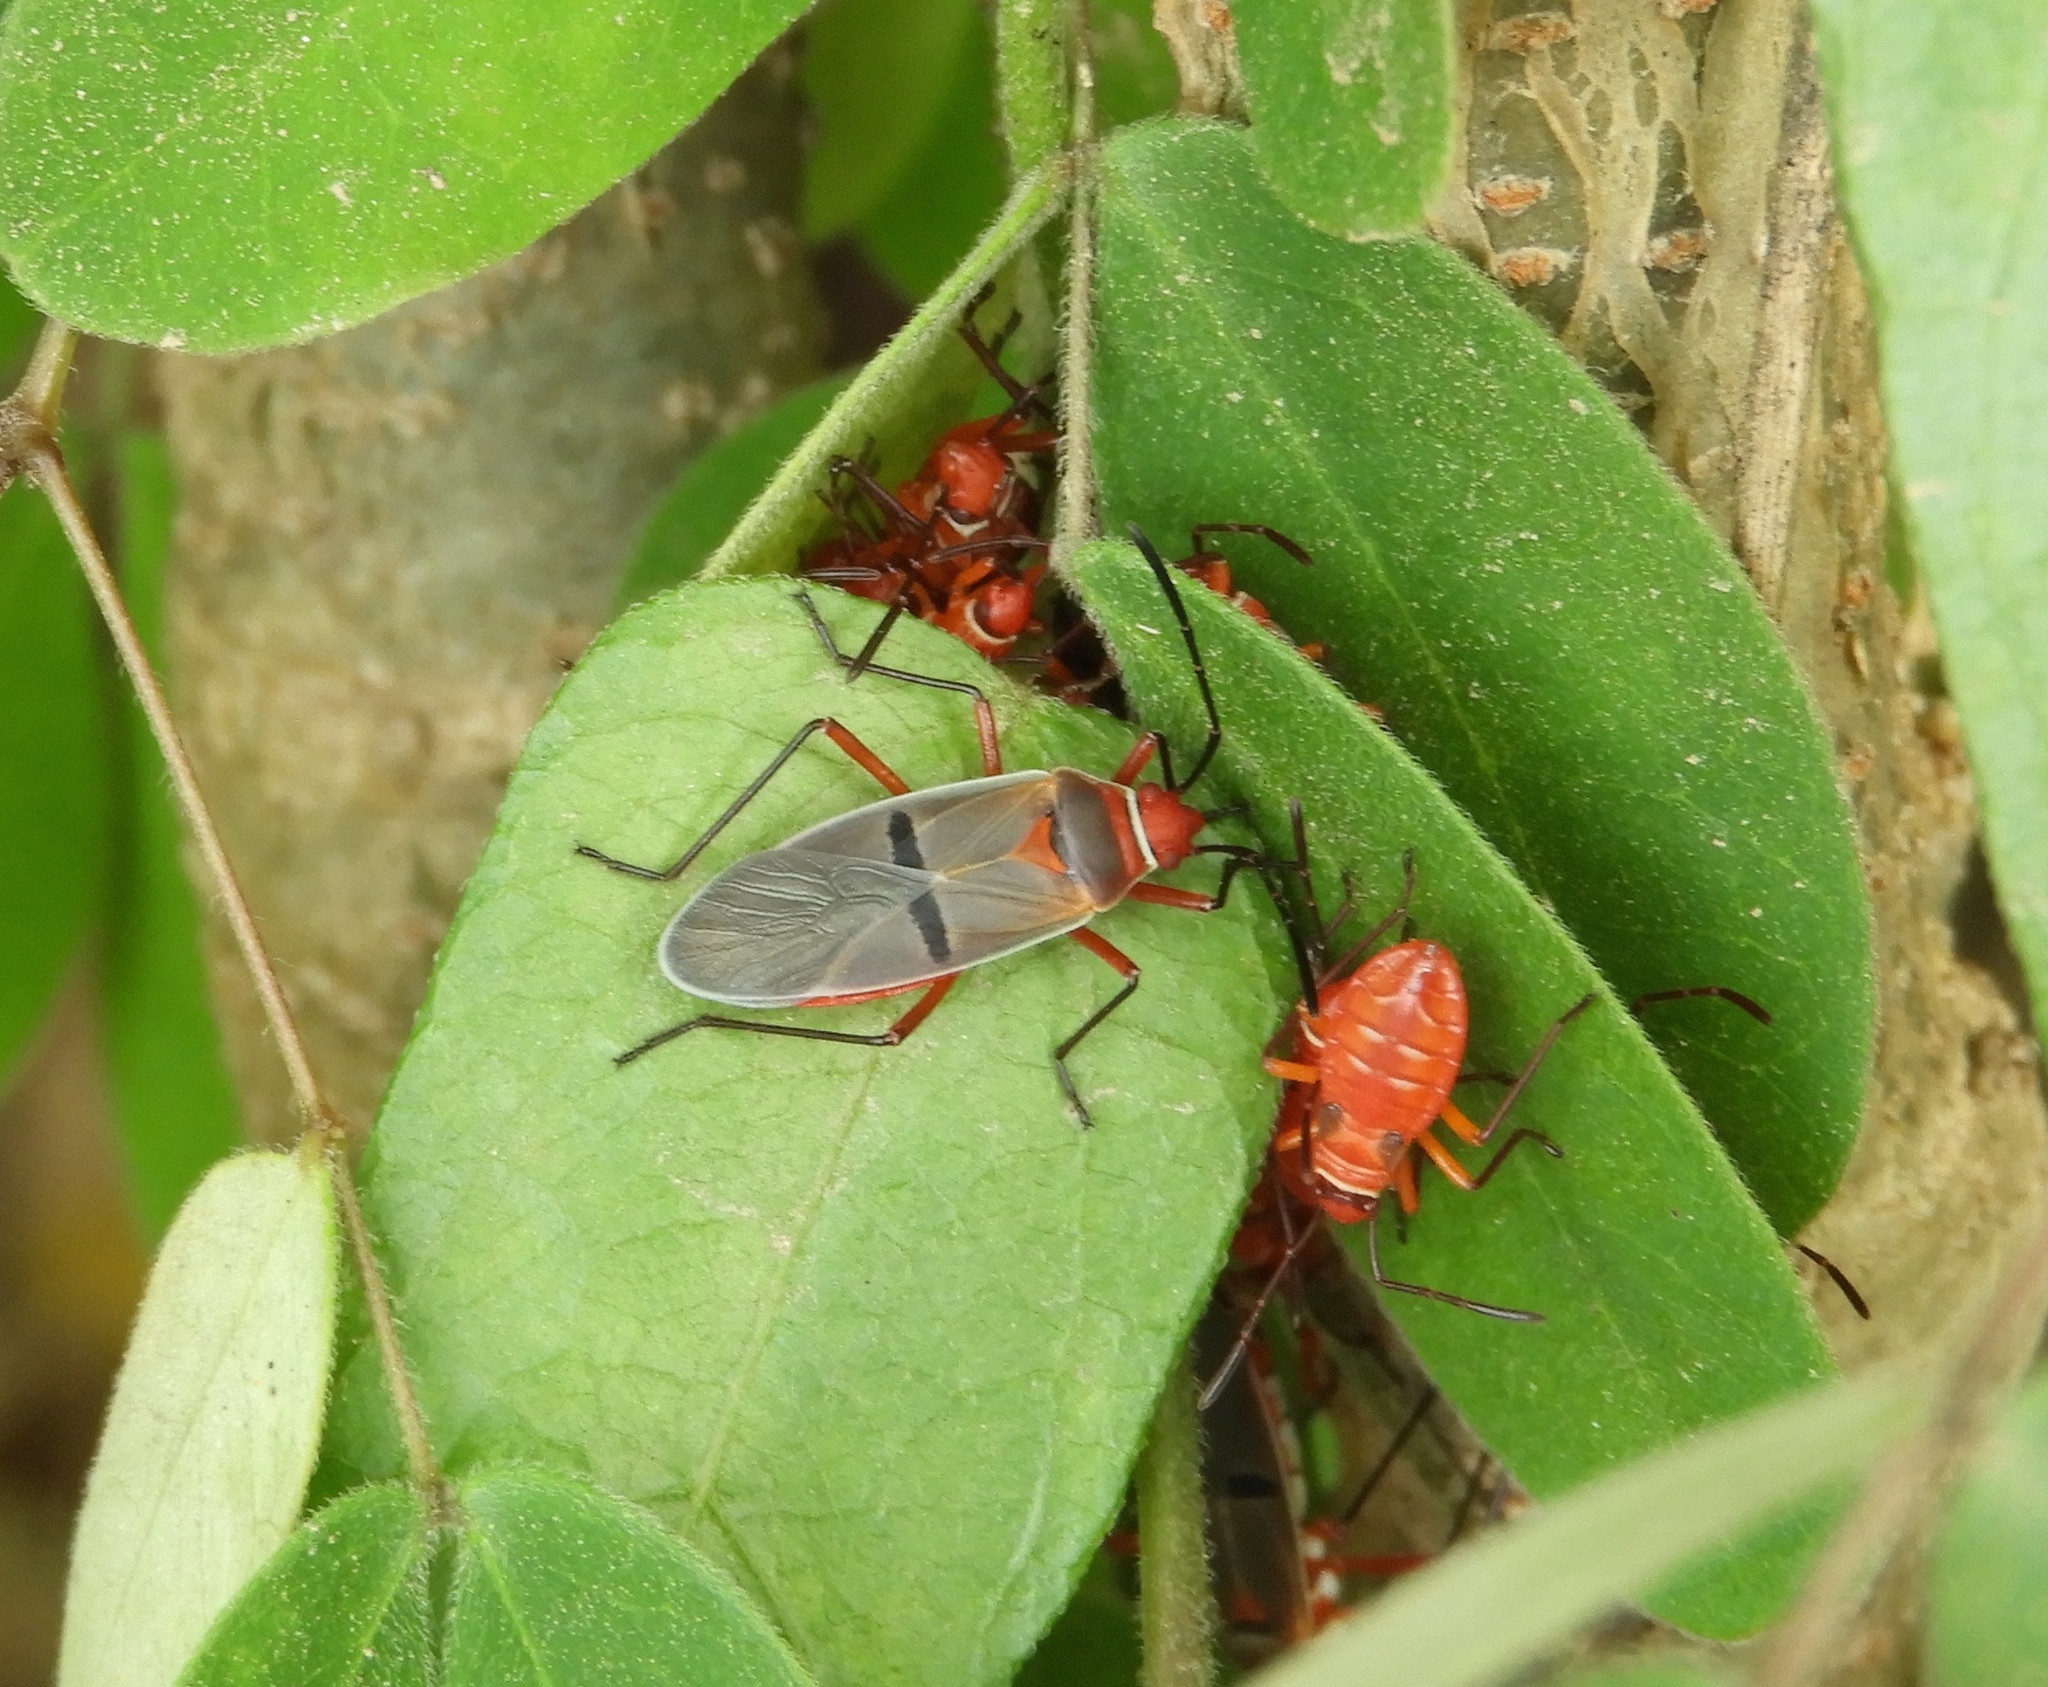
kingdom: Animalia
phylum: Arthropoda
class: Insecta
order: Hemiptera
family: Pyrrhocoridae
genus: Dysdercus
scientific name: Dysdercus
